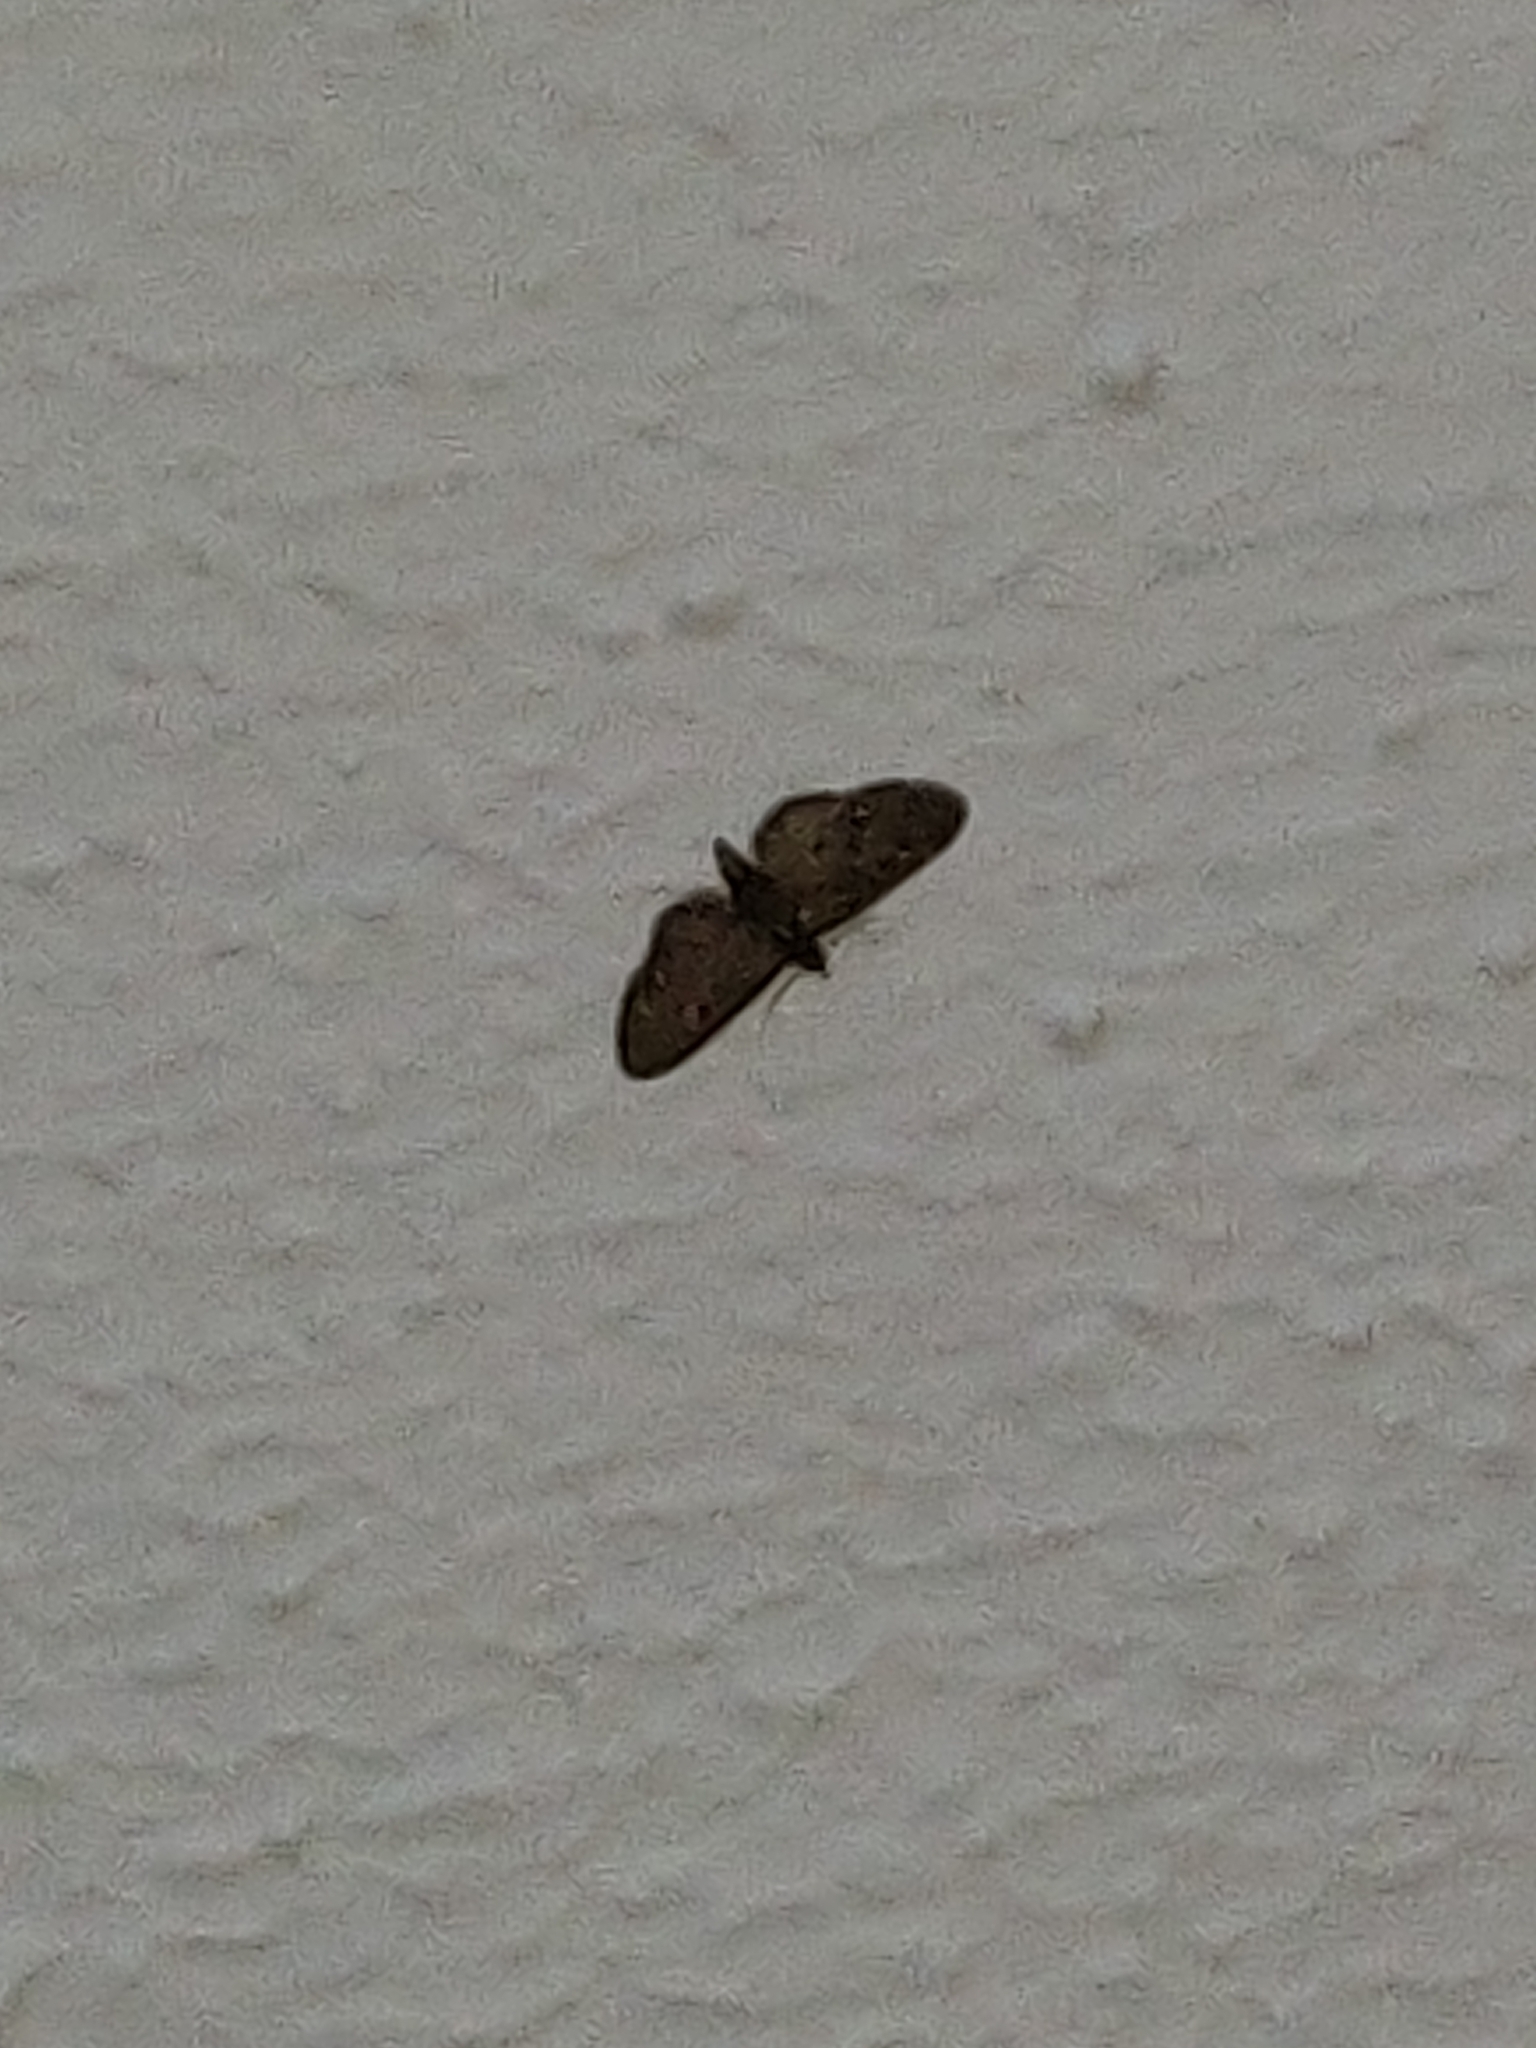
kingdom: Animalia
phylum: Arthropoda
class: Insecta
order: Lepidoptera
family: Geometridae
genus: Pasiphila
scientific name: Pasiphila rectangulata
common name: Green pug
